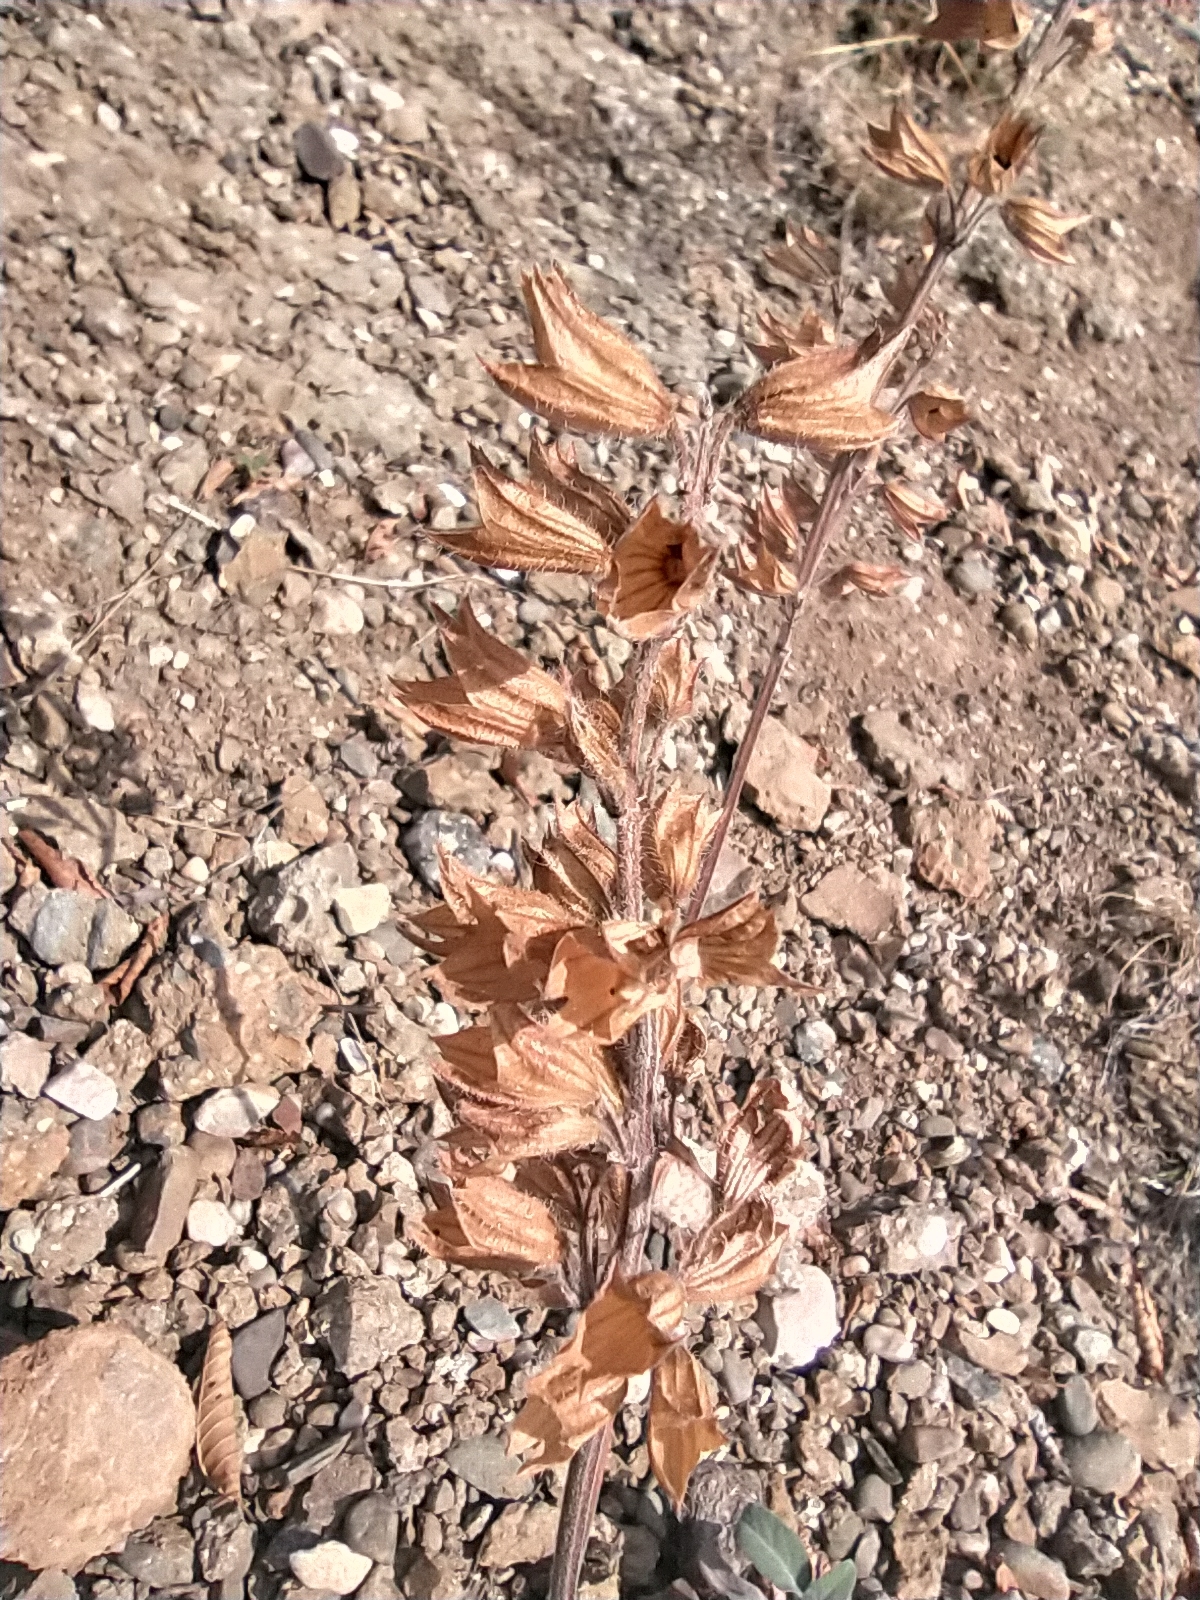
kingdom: Plantae
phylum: Tracheophyta
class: Magnoliopsida
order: Lamiales
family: Lamiaceae
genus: Salvia
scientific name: Salvia tomentosa
